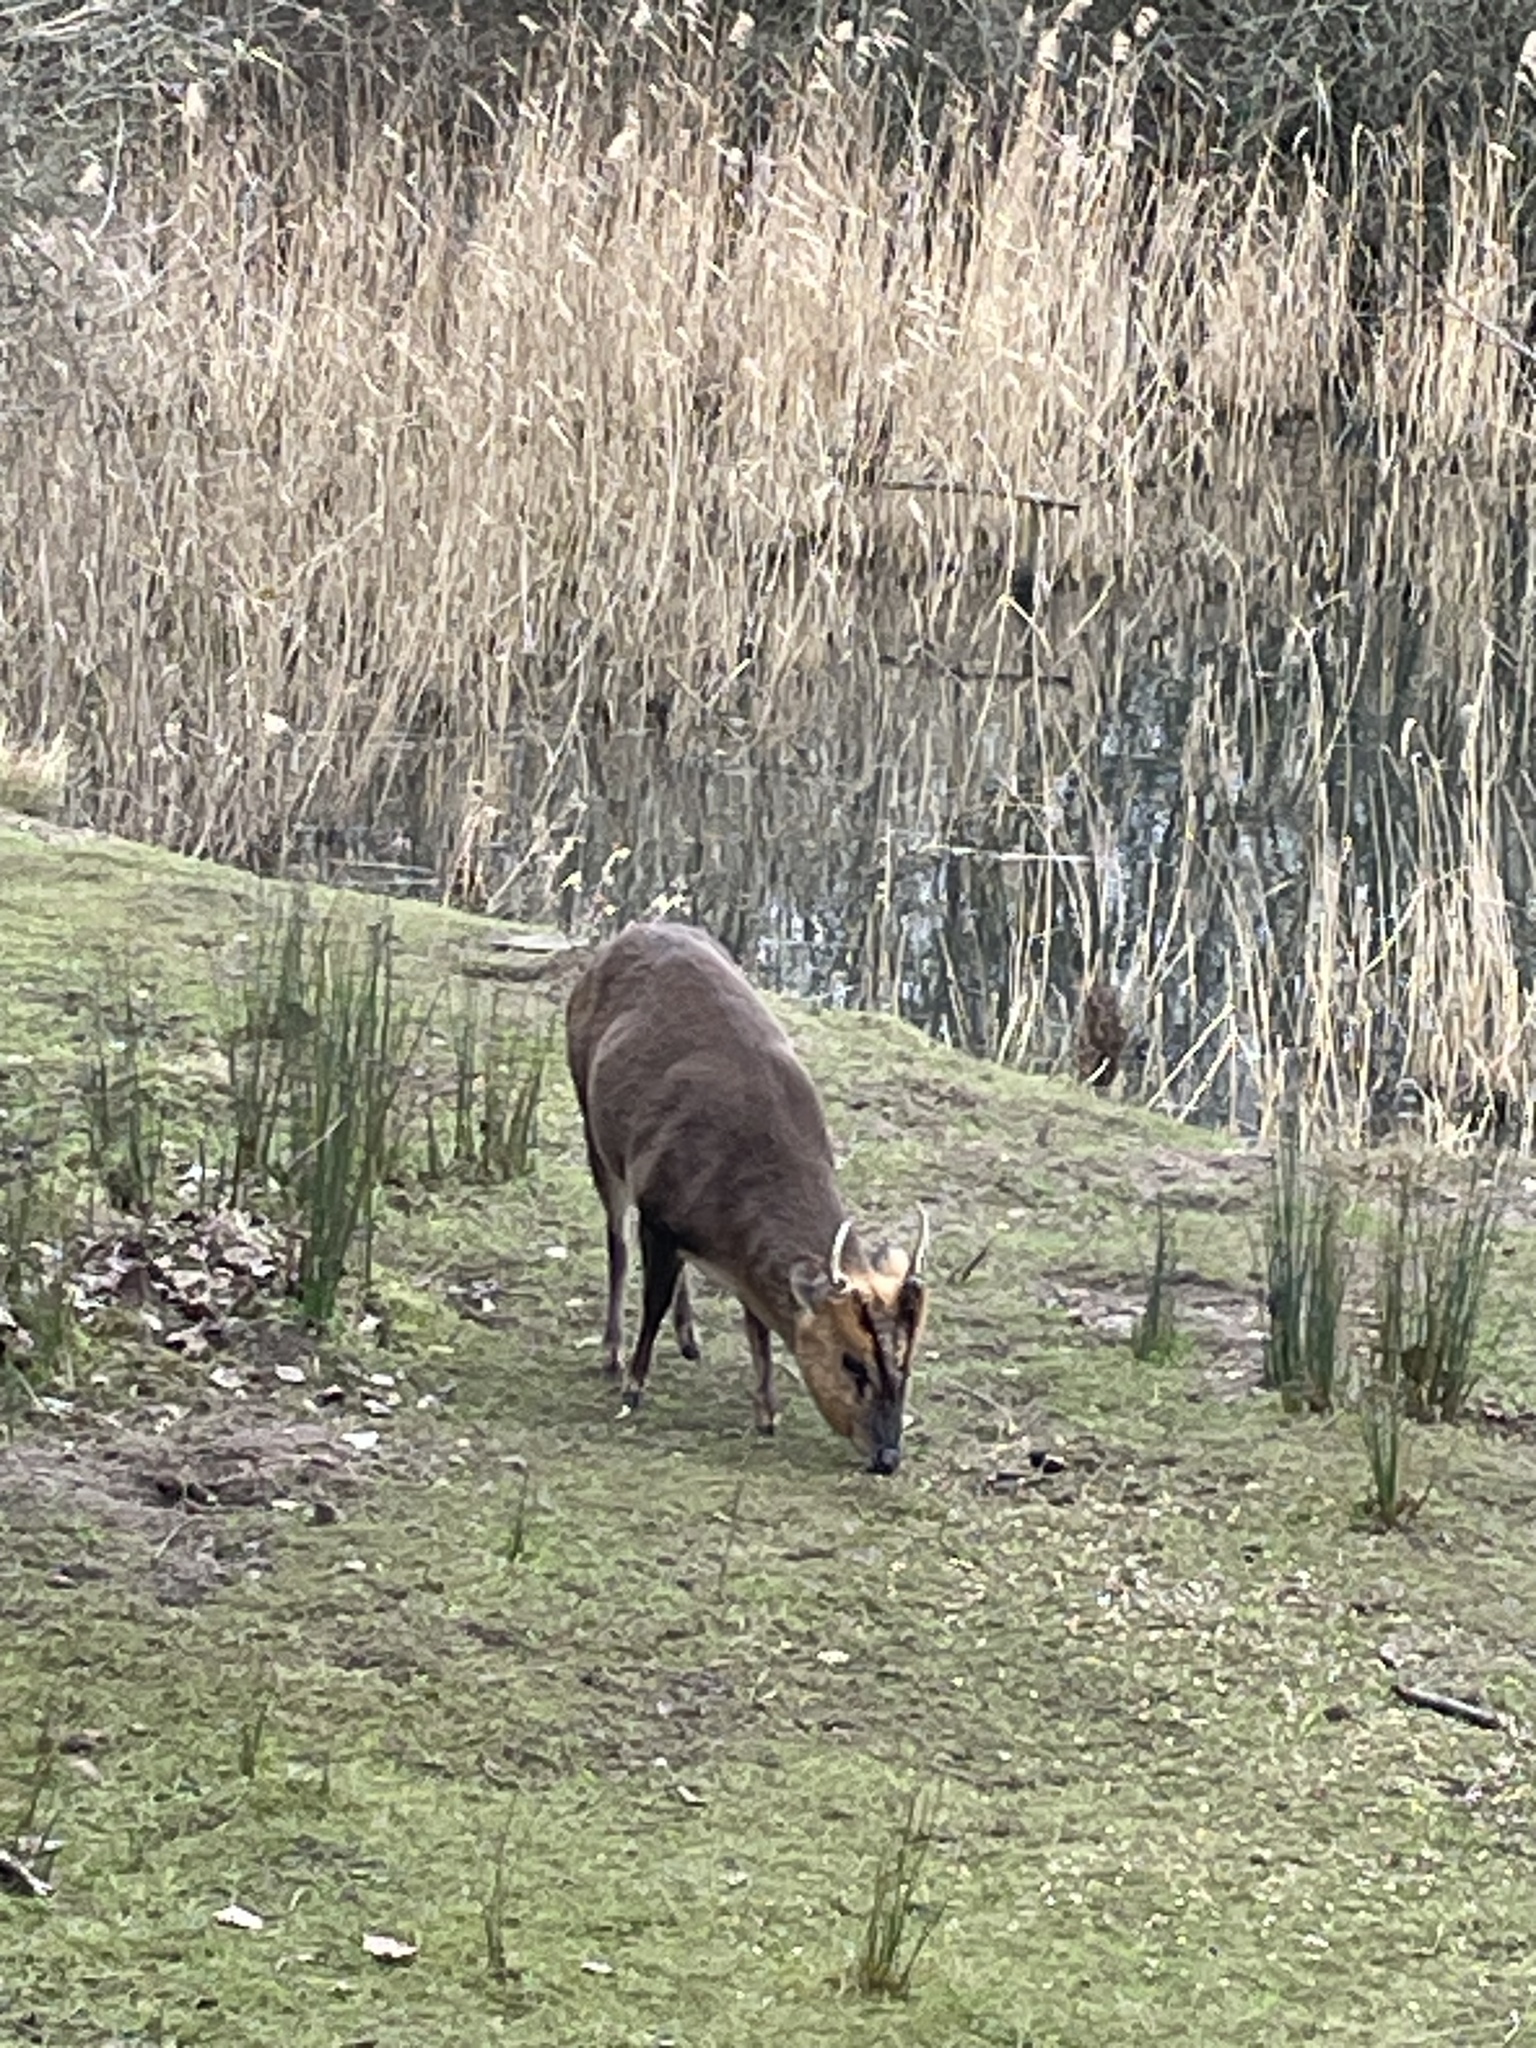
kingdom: Animalia
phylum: Chordata
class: Mammalia
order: Artiodactyla
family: Cervidae
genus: Muntiacus
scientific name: Muntiacus reevesi
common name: Reeves' muntjac
